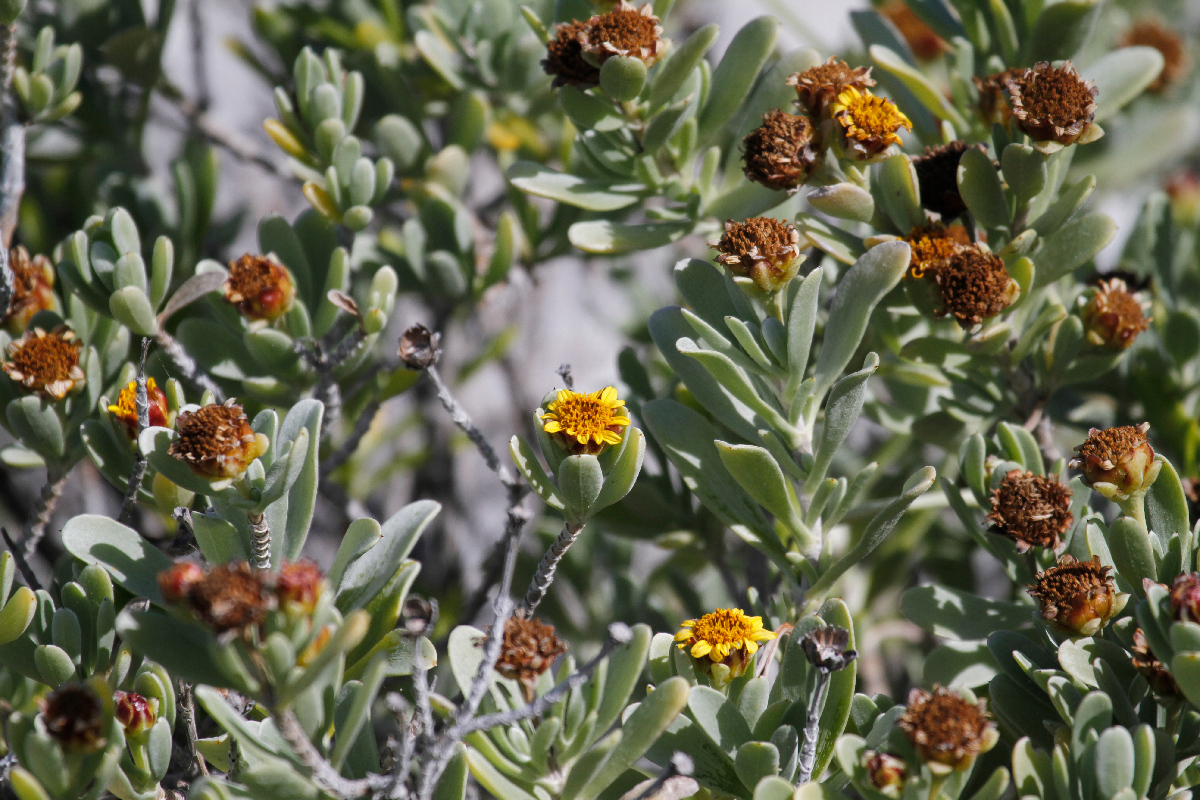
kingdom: Plantae
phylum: Tracheophyta
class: Magnoliopsida
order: Asterales
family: Asteraceae
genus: Borrichia
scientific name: Borrichia frutescens
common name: Sea oxeye
